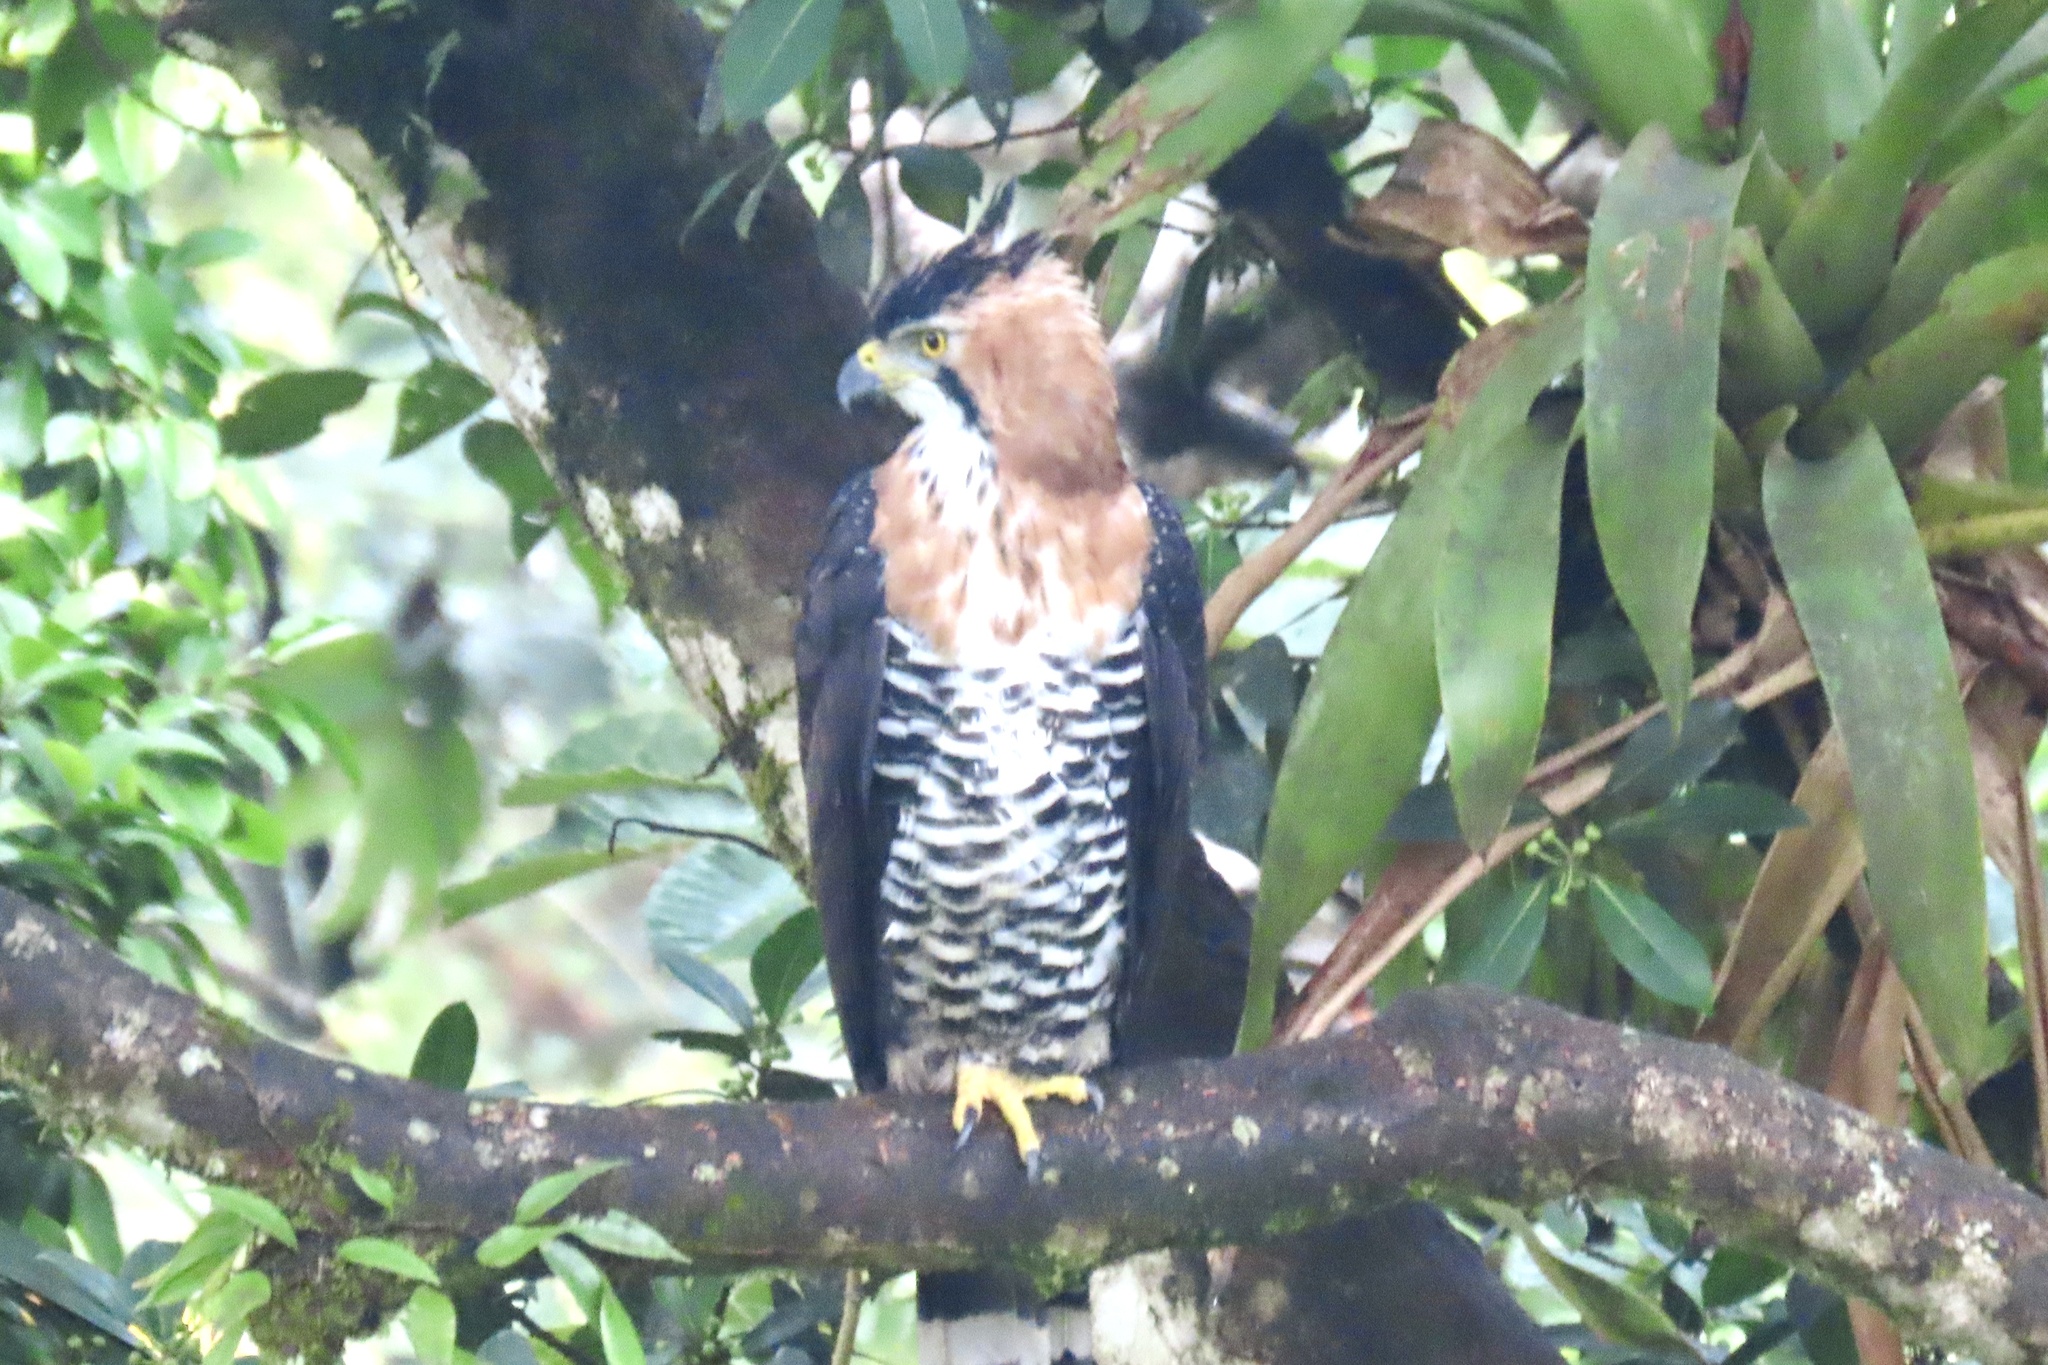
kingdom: Animalia
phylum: Chordata
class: Aves
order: Accipitriformes
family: Accipitridae
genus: Spizaetus
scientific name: Spizaetus ornatus
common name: Ornate hawk-eagle
